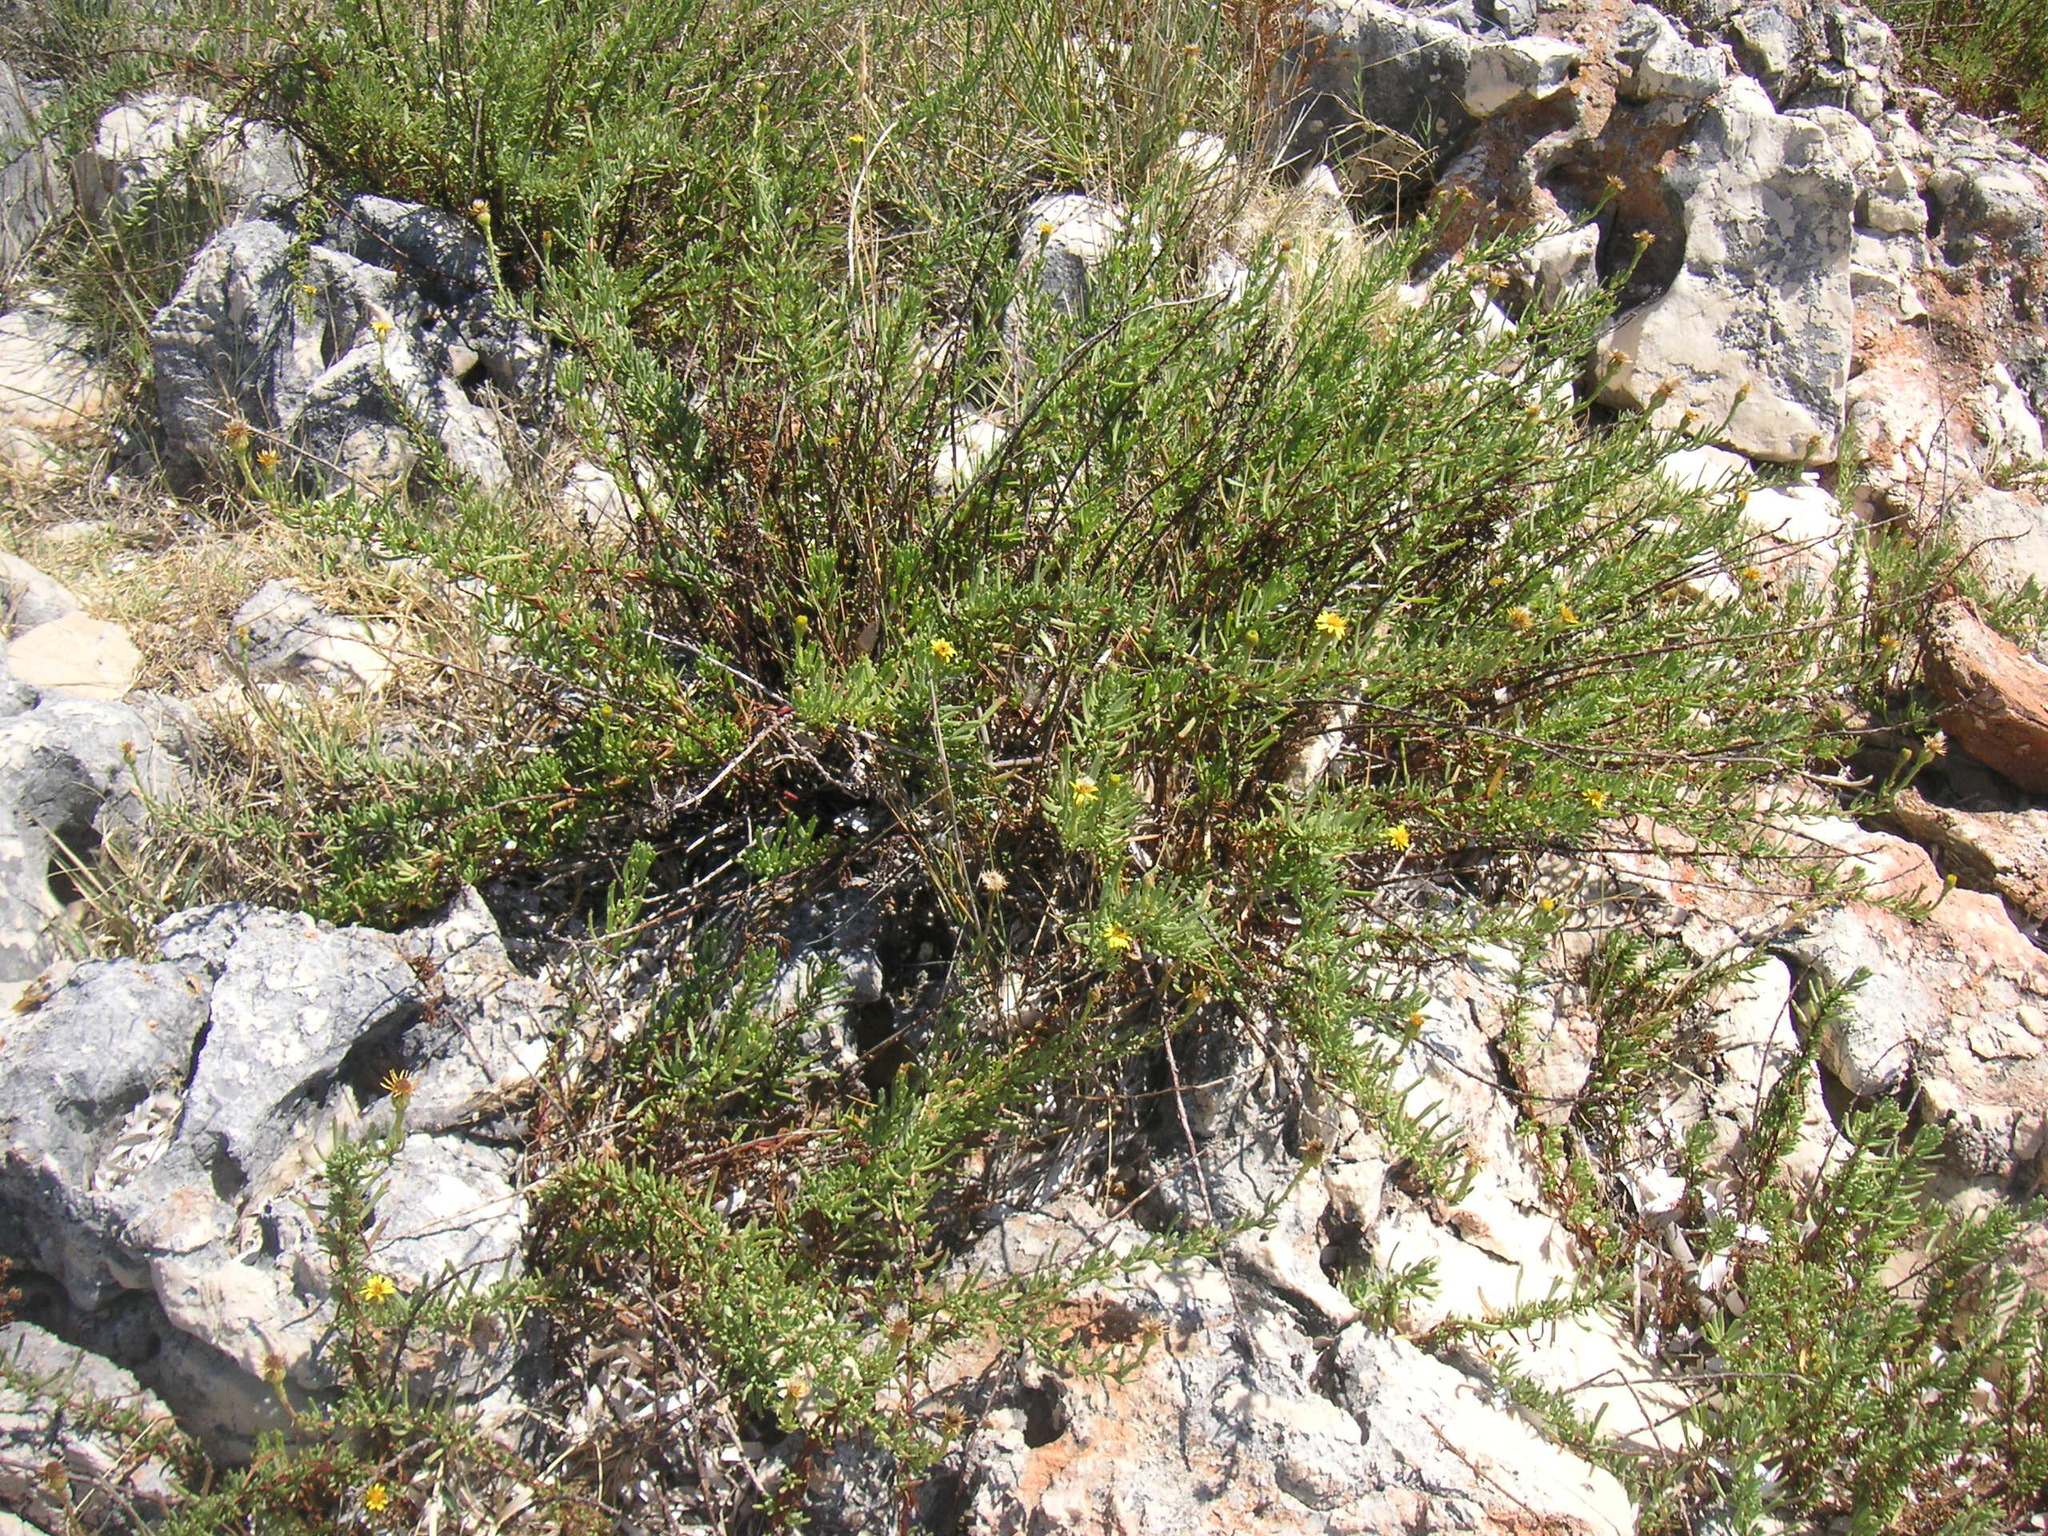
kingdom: Plantae
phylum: Tracheophyta
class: Magnoliopsida
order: Asterales
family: Asteraceae
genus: Limbarda
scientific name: Limbarda crithmoides
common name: Golden samphire
